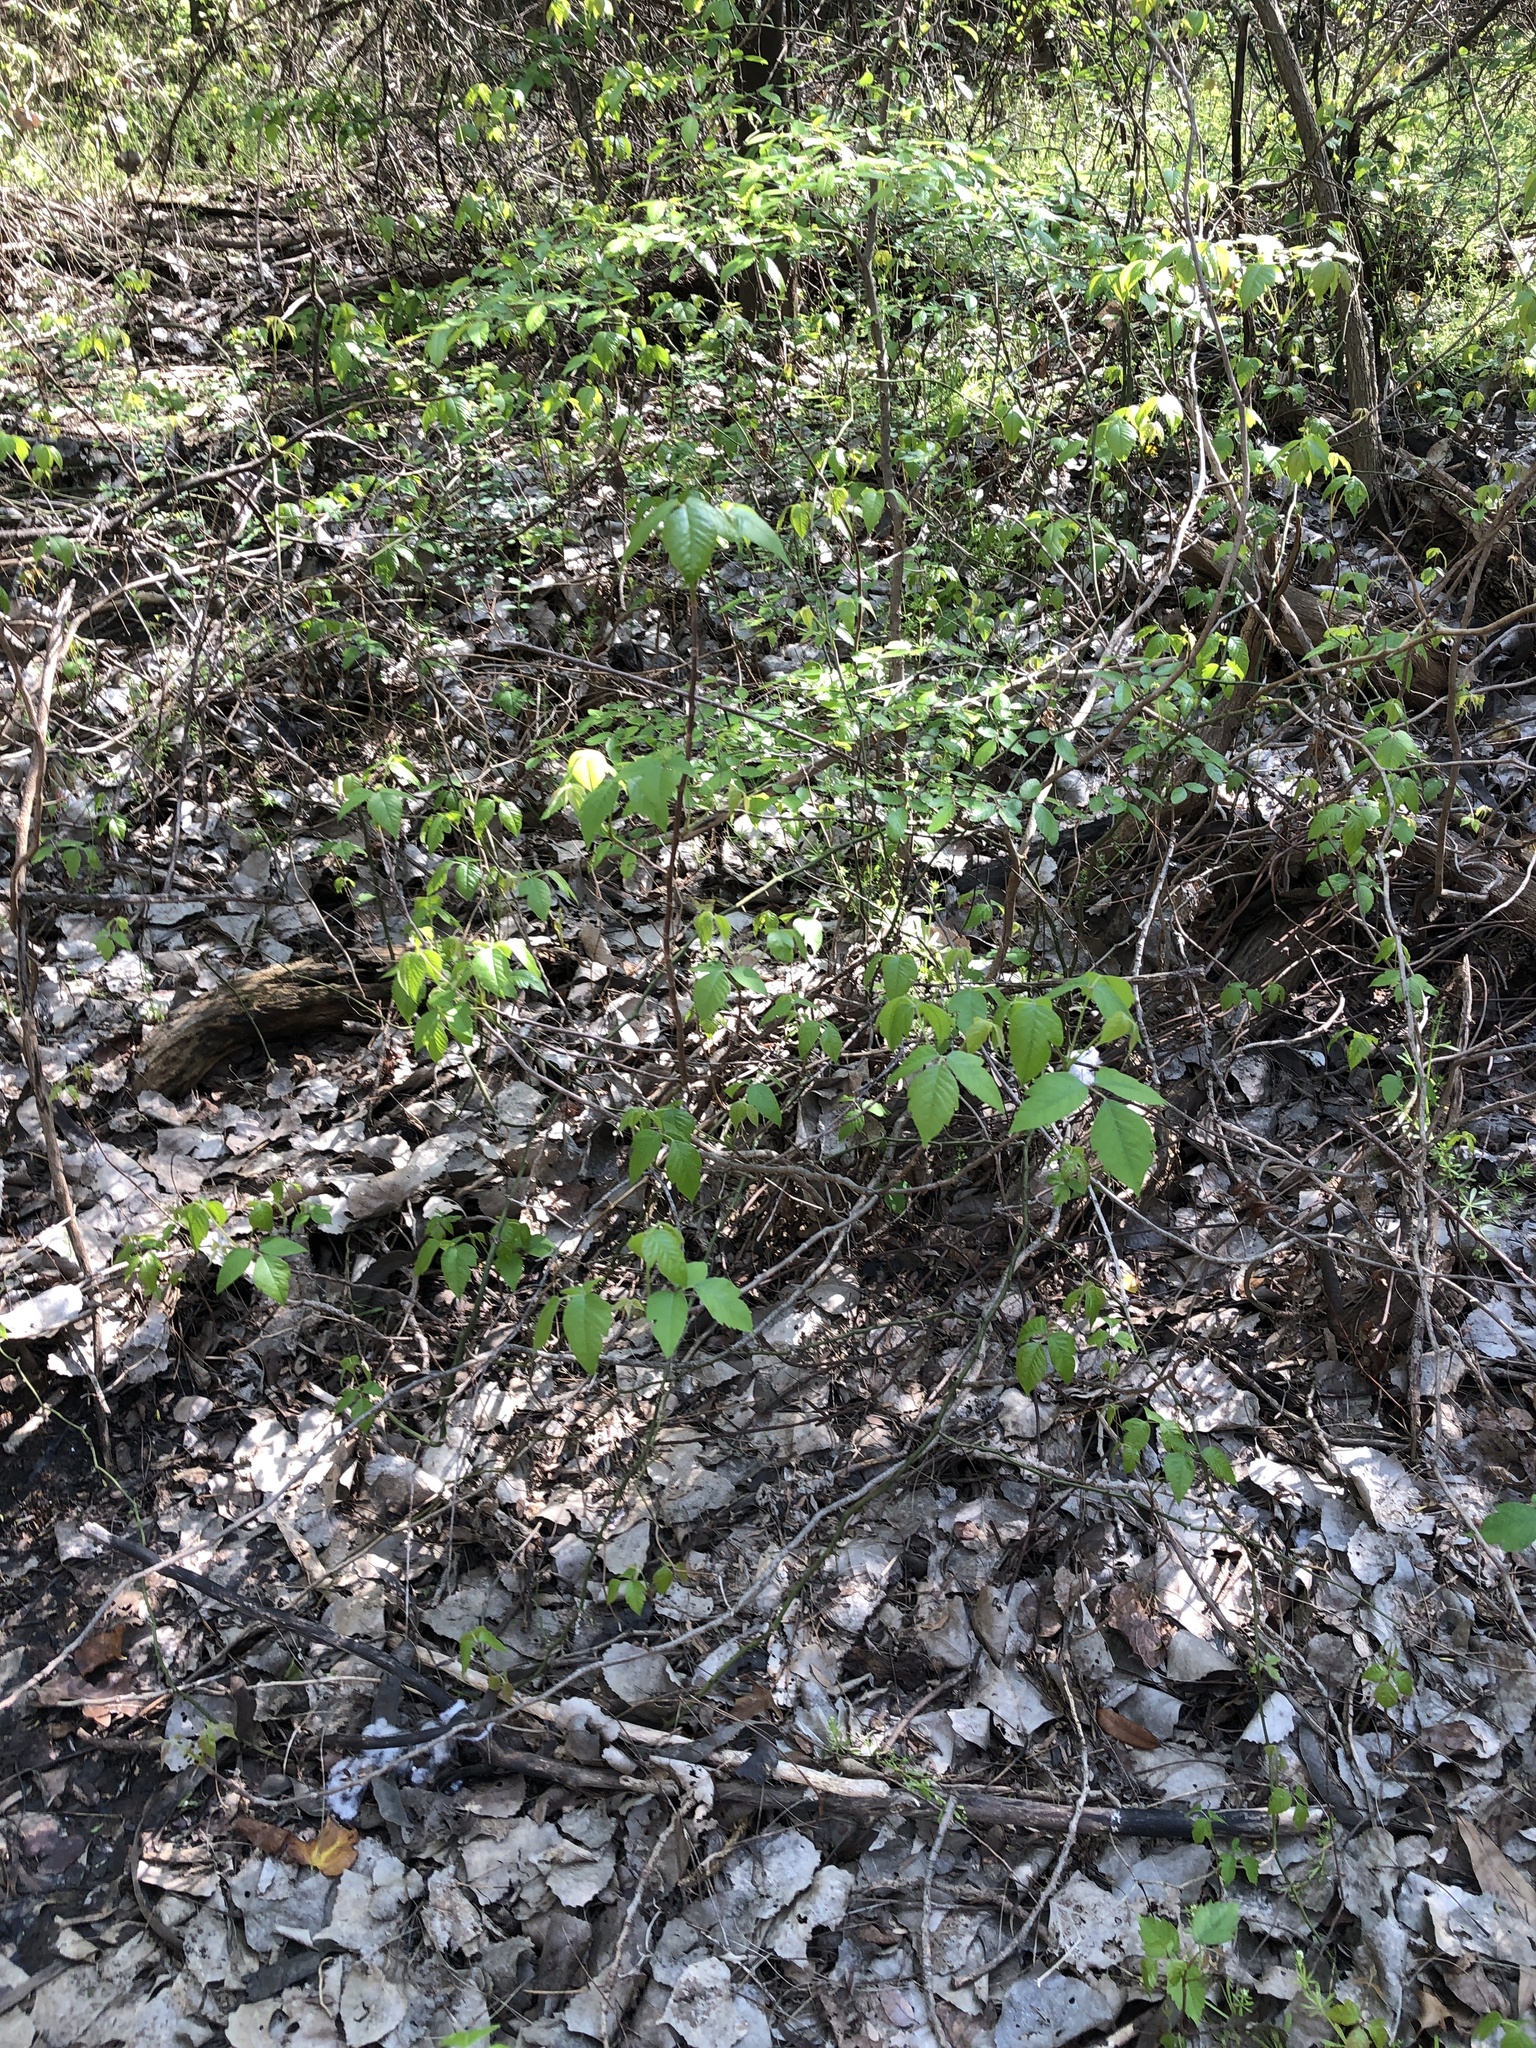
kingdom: Plantae
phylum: Tracheophyta
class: Magnoliopsida
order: Sapindales
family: Anacardiaceae
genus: Toxicodendron
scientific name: Toxicodendron radicans
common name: Poison ivy
